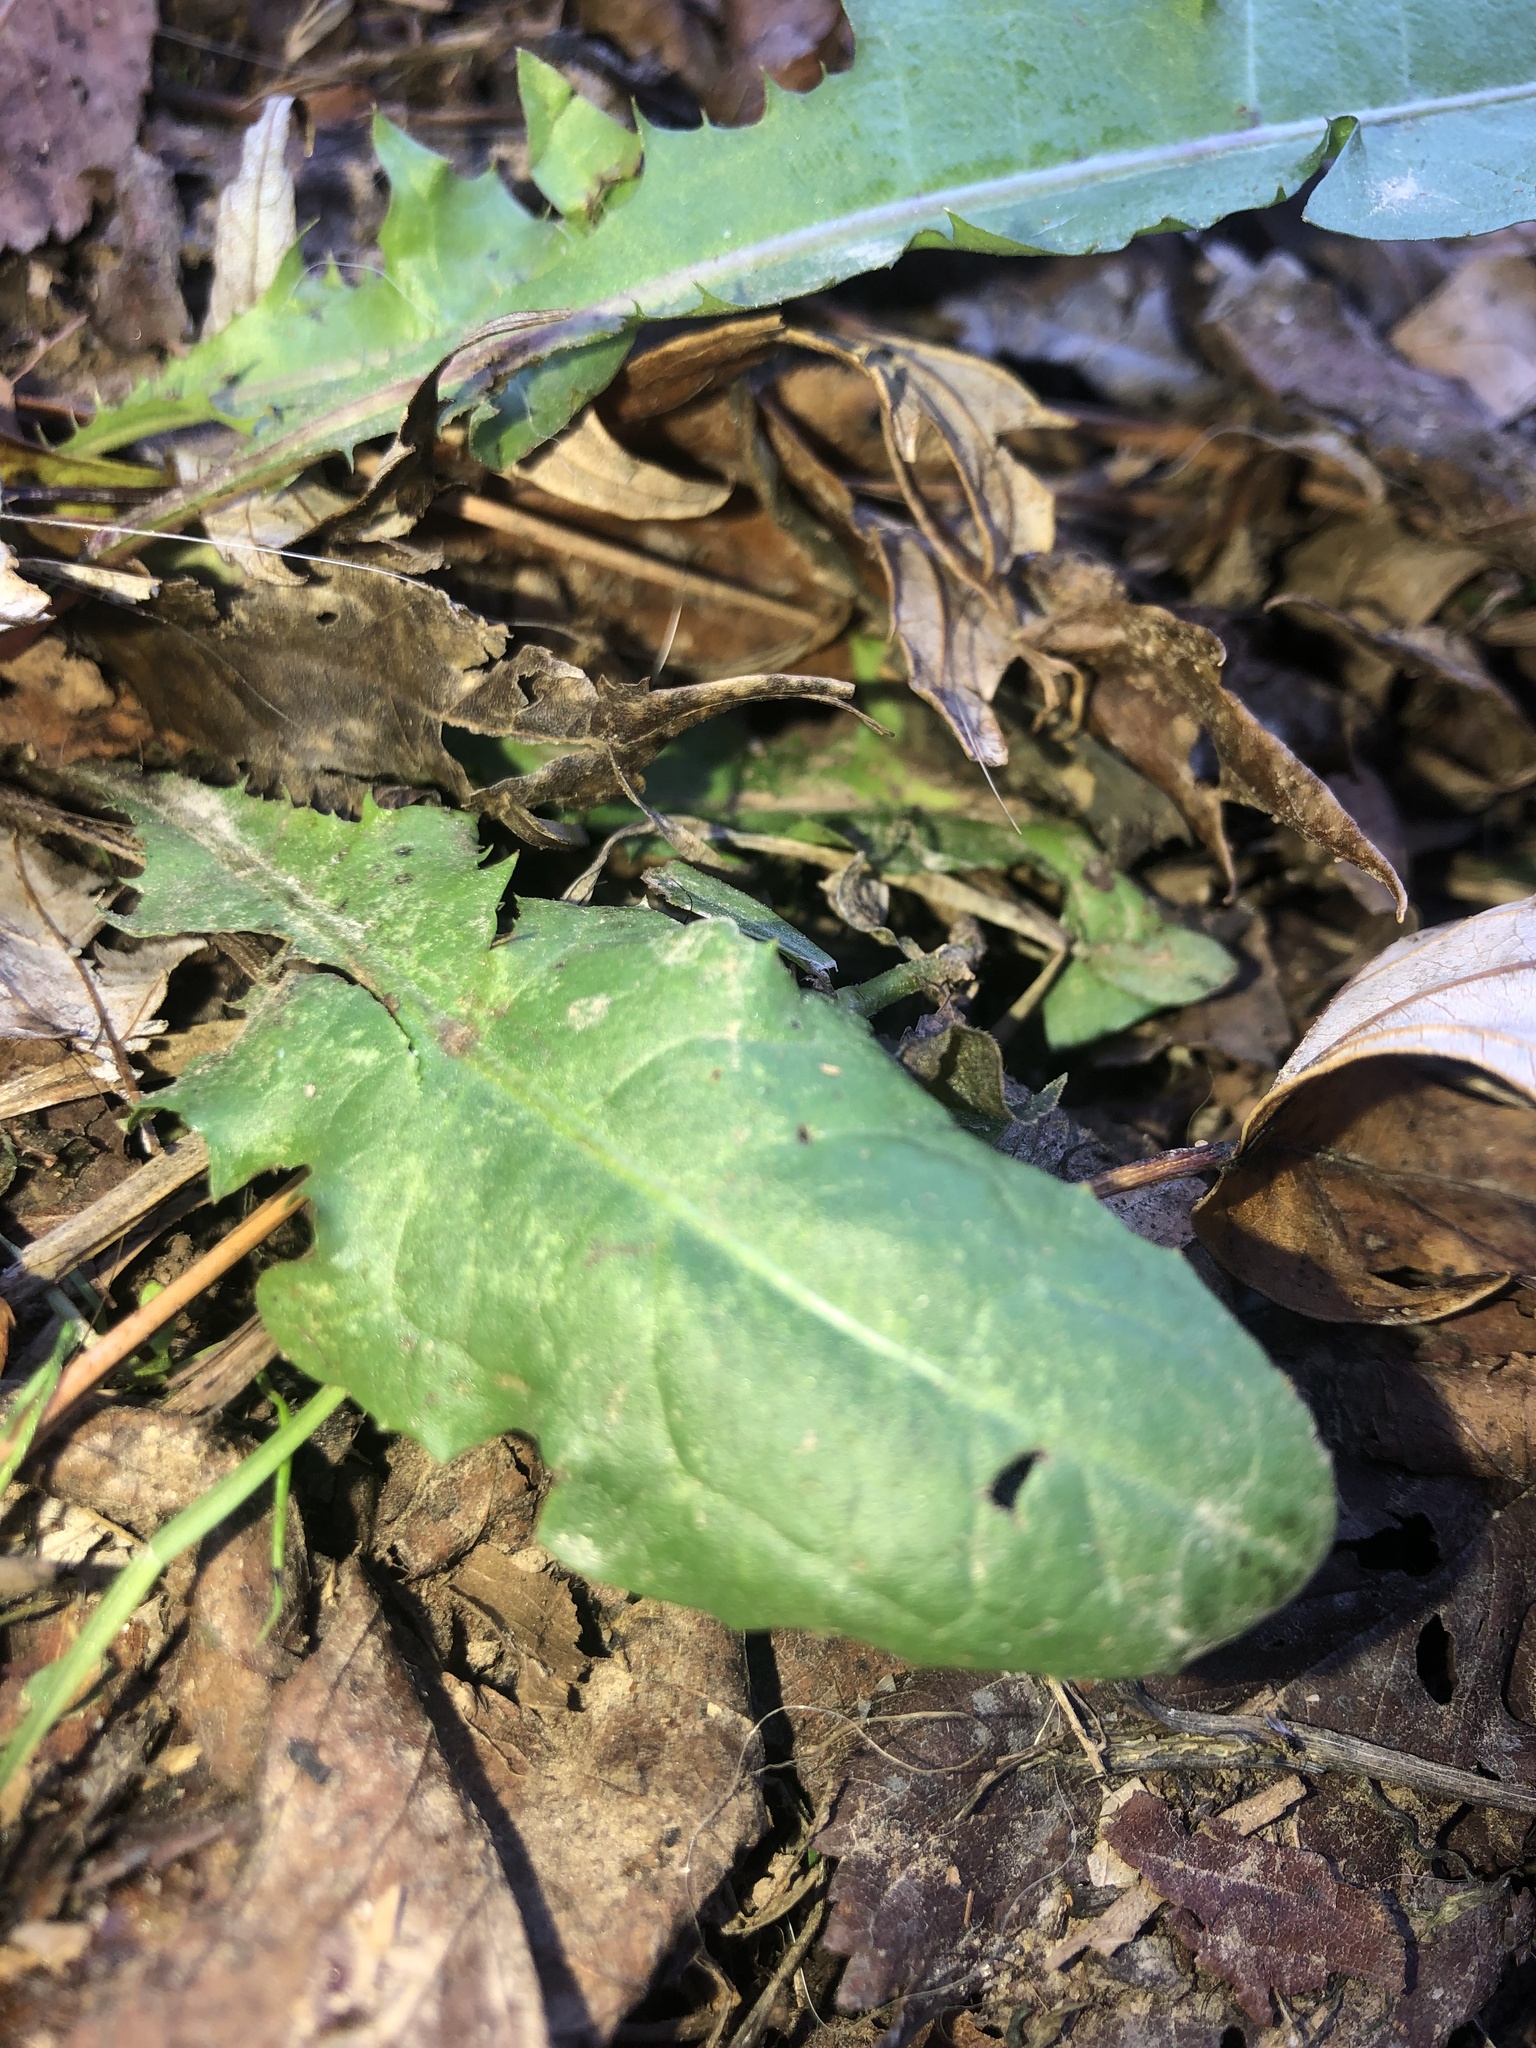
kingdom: Plantae
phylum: Tracheophyta
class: Magnoliopsida
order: Asterales
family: Asteraceae
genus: Taraxacum
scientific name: Taraxacum officinale
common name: Common dandelion
